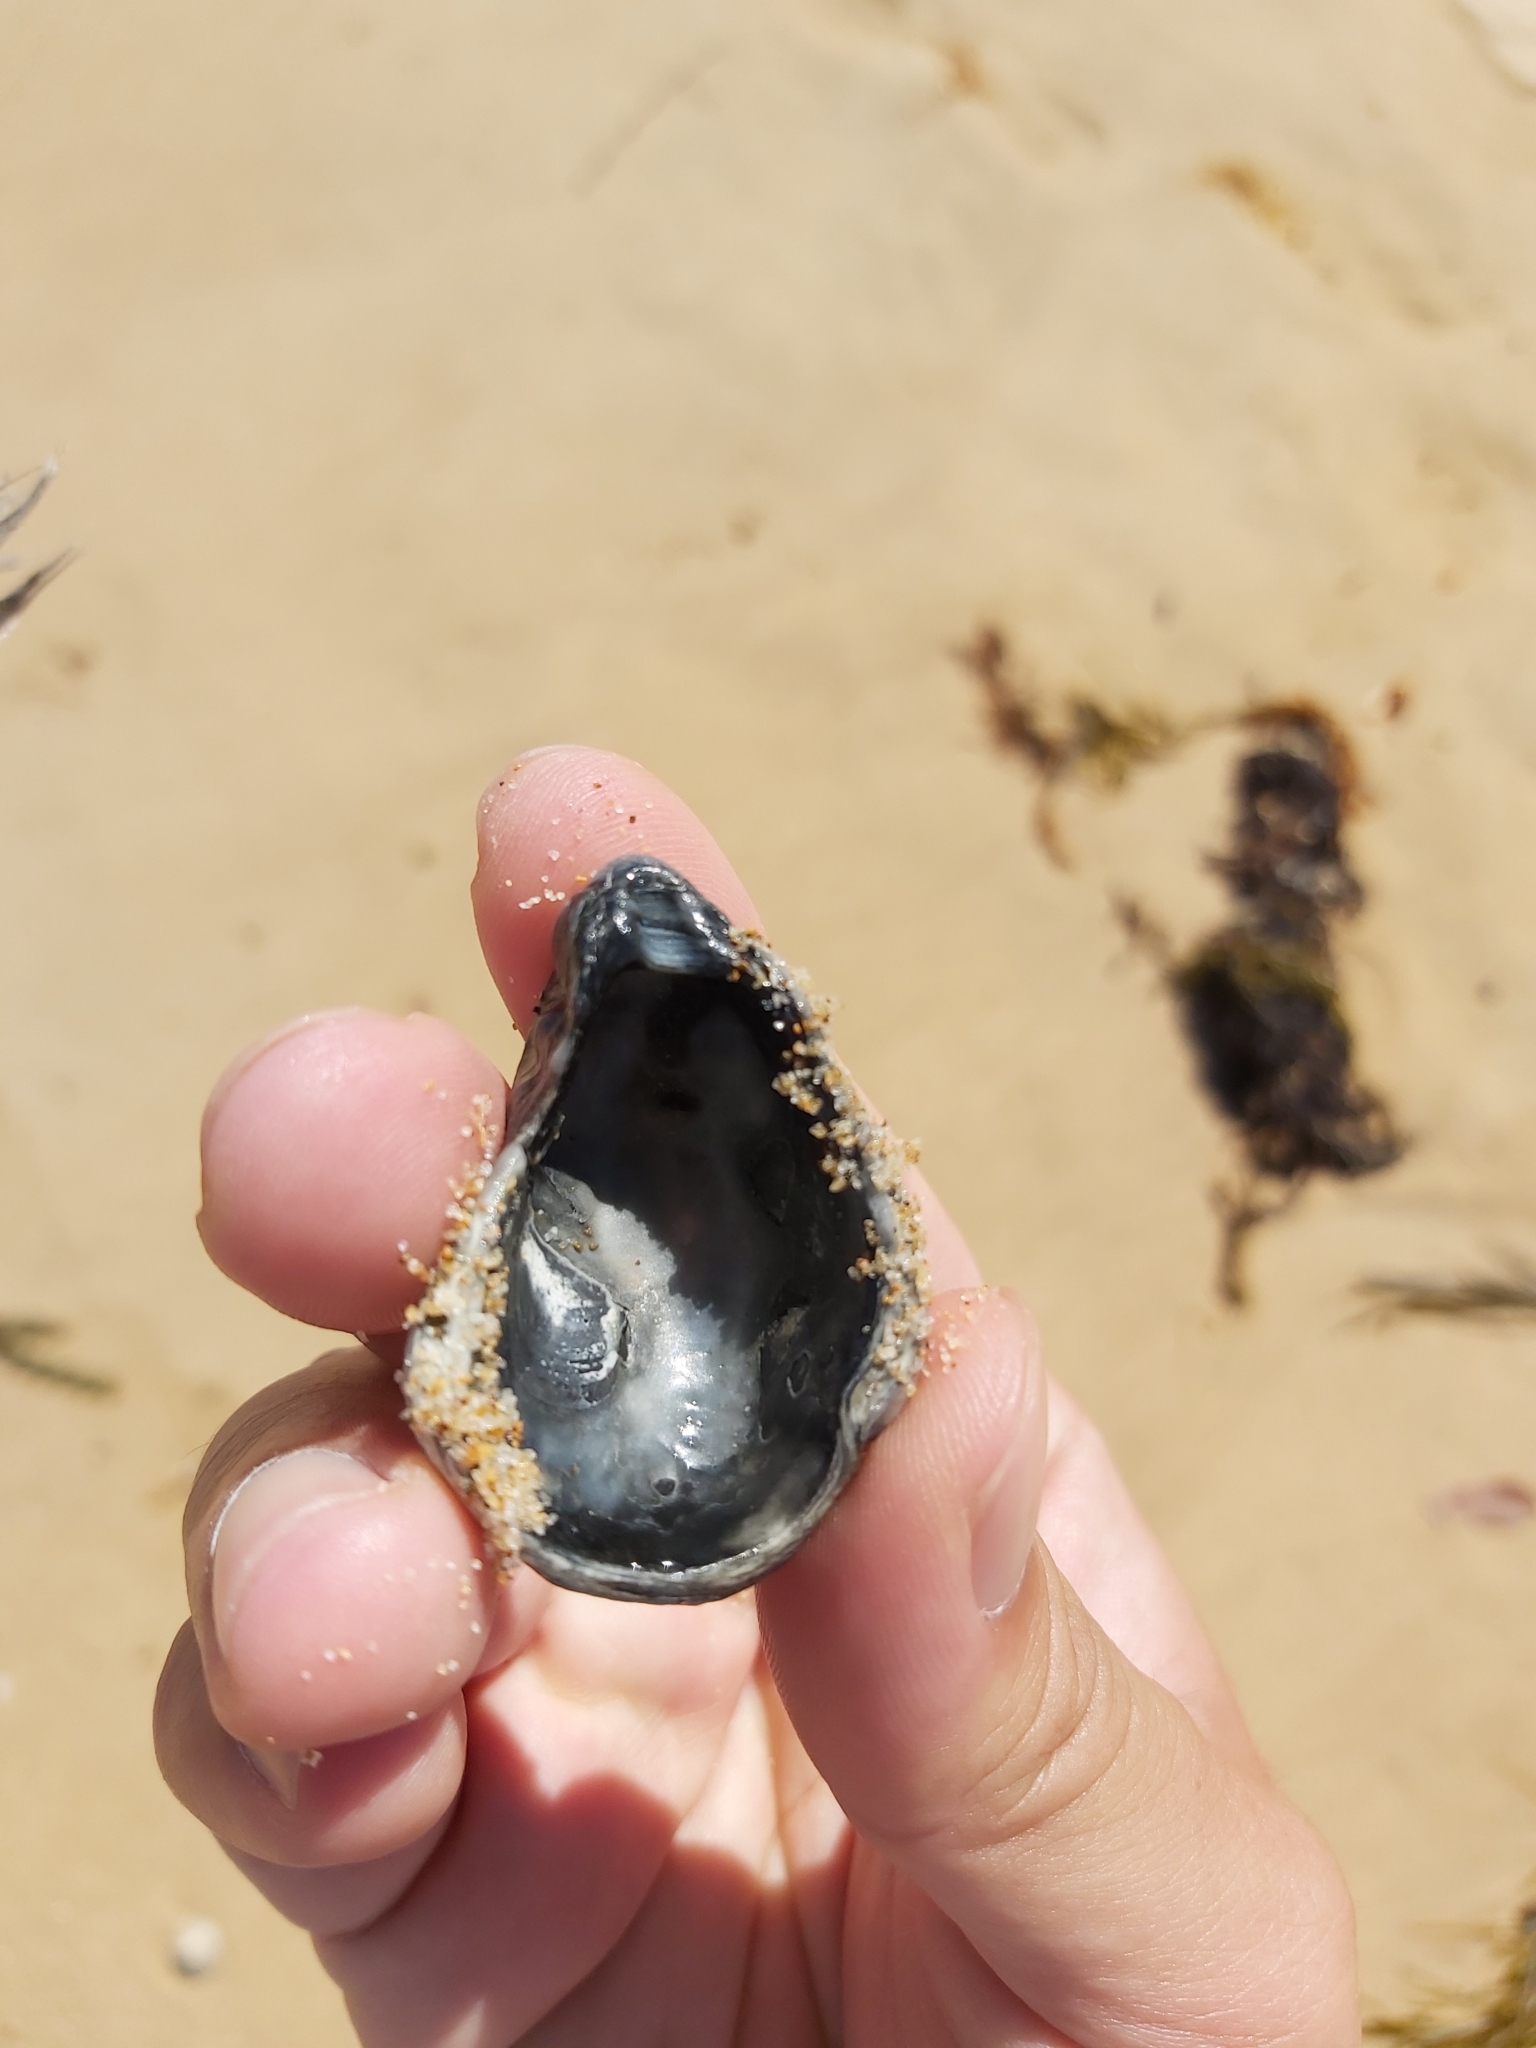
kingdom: Animalia
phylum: Mollusca
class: Bivalvia
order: Ostreida
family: Ostreidae
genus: Saccostrea
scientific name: Saccostrea glomerata
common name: Sydney cupped oyster
